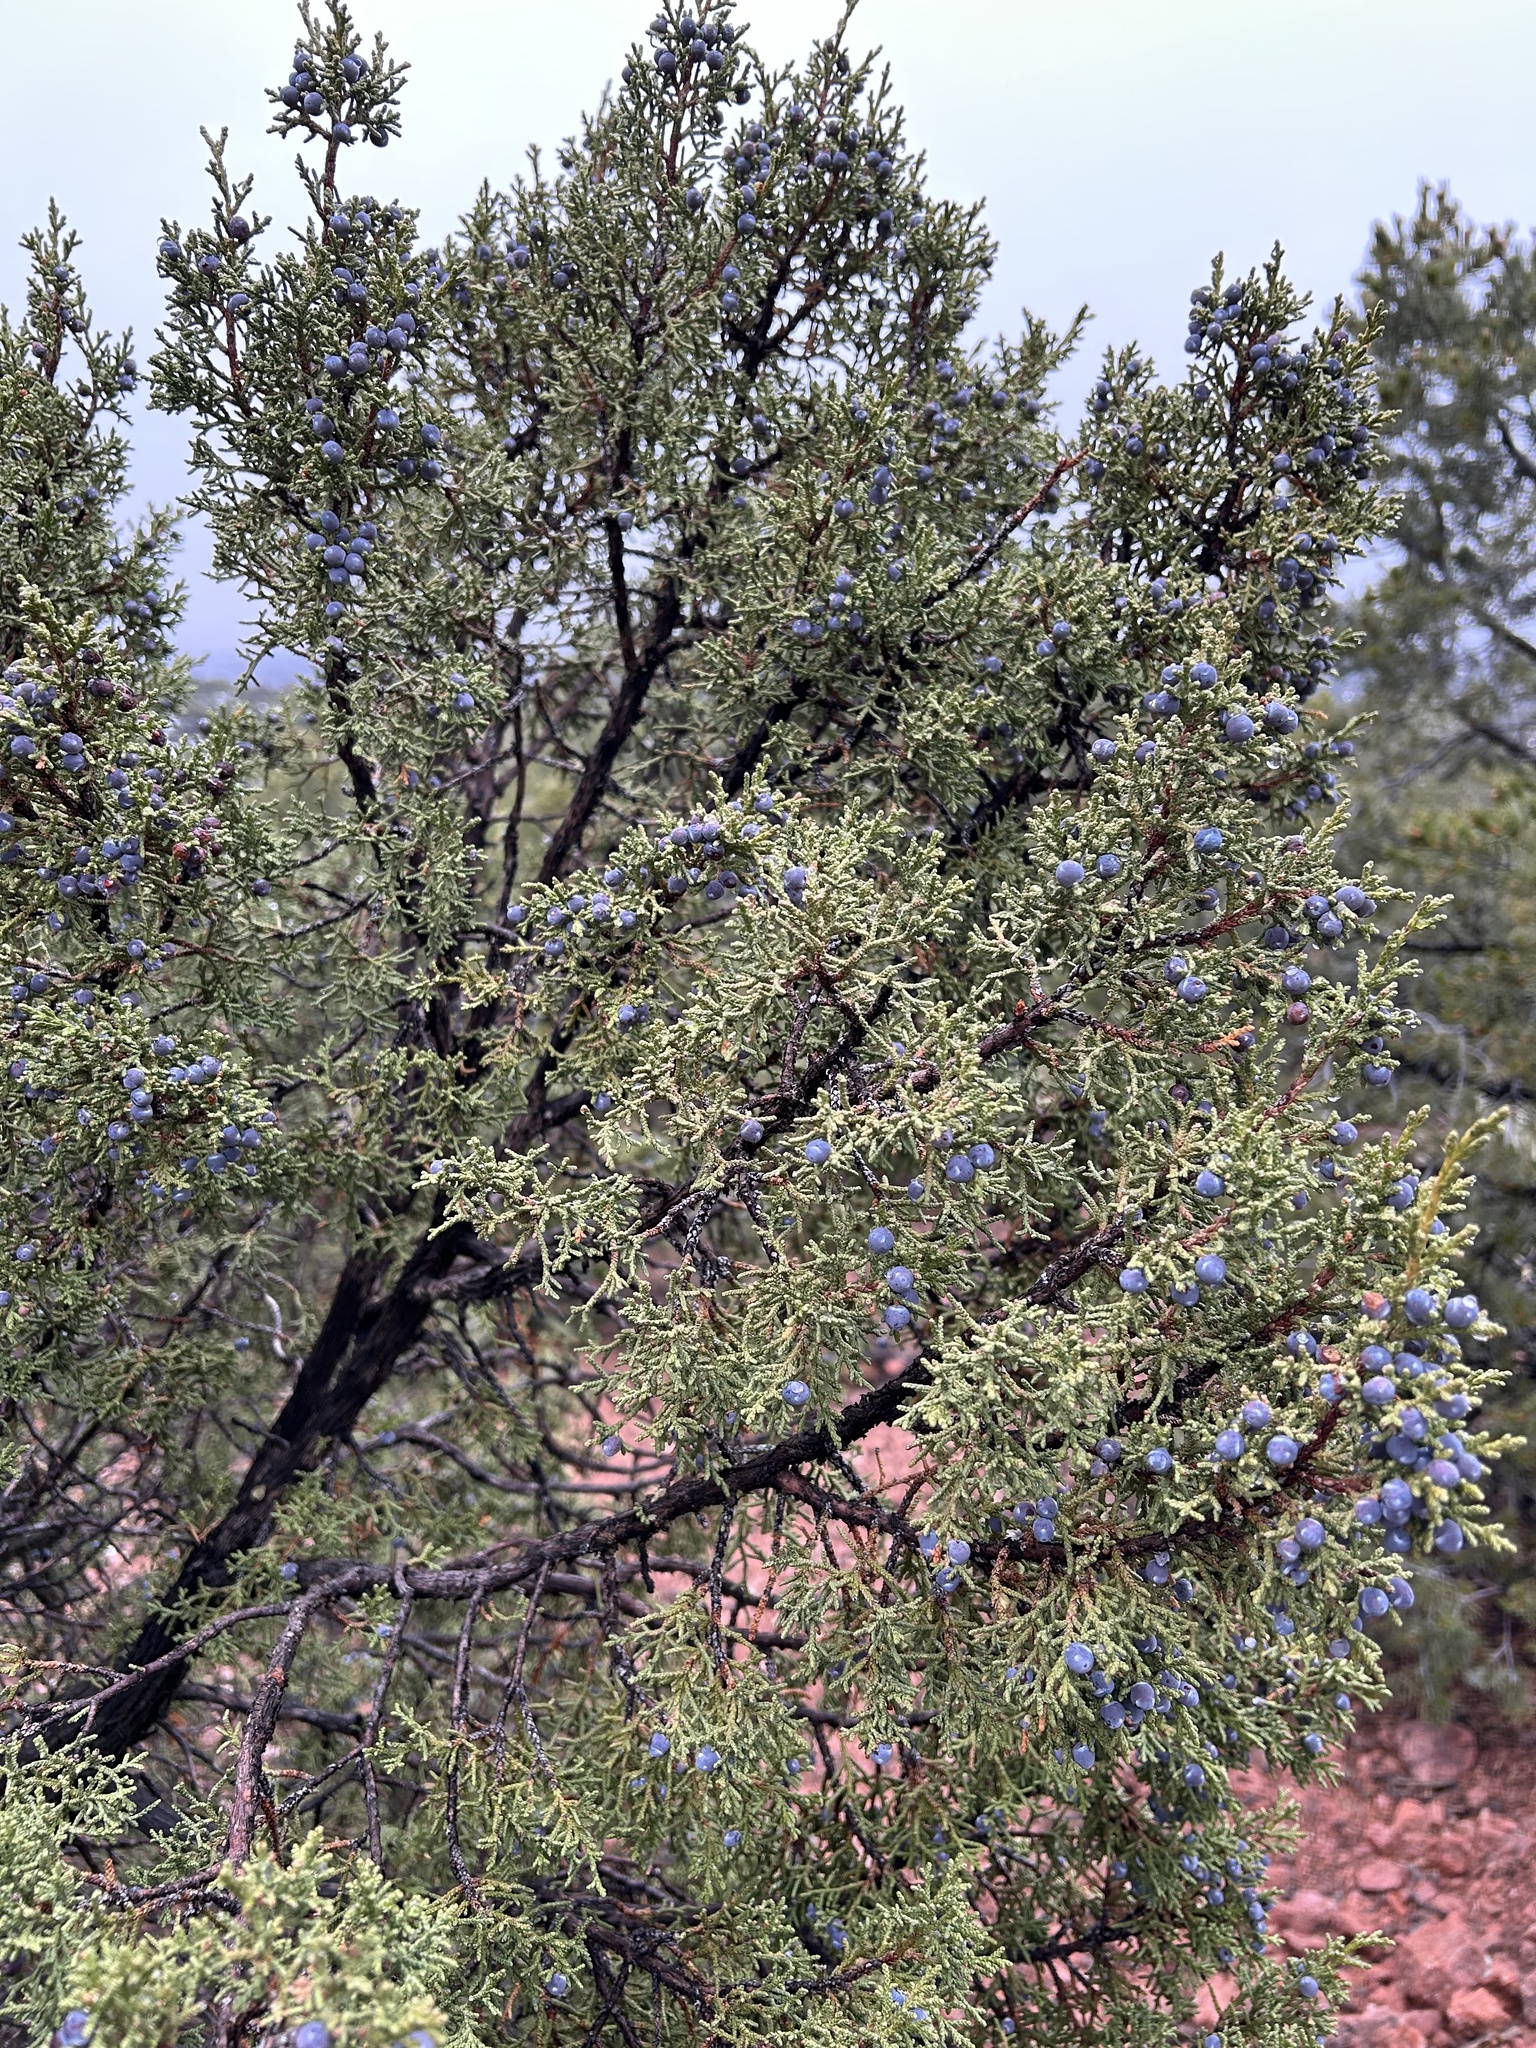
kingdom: Plantae
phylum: Tracheophyta
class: Pinopsida
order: Pinales
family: Cupressaceae
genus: Juniperus
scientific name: Juniperus monosperma
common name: One-seed juniper
